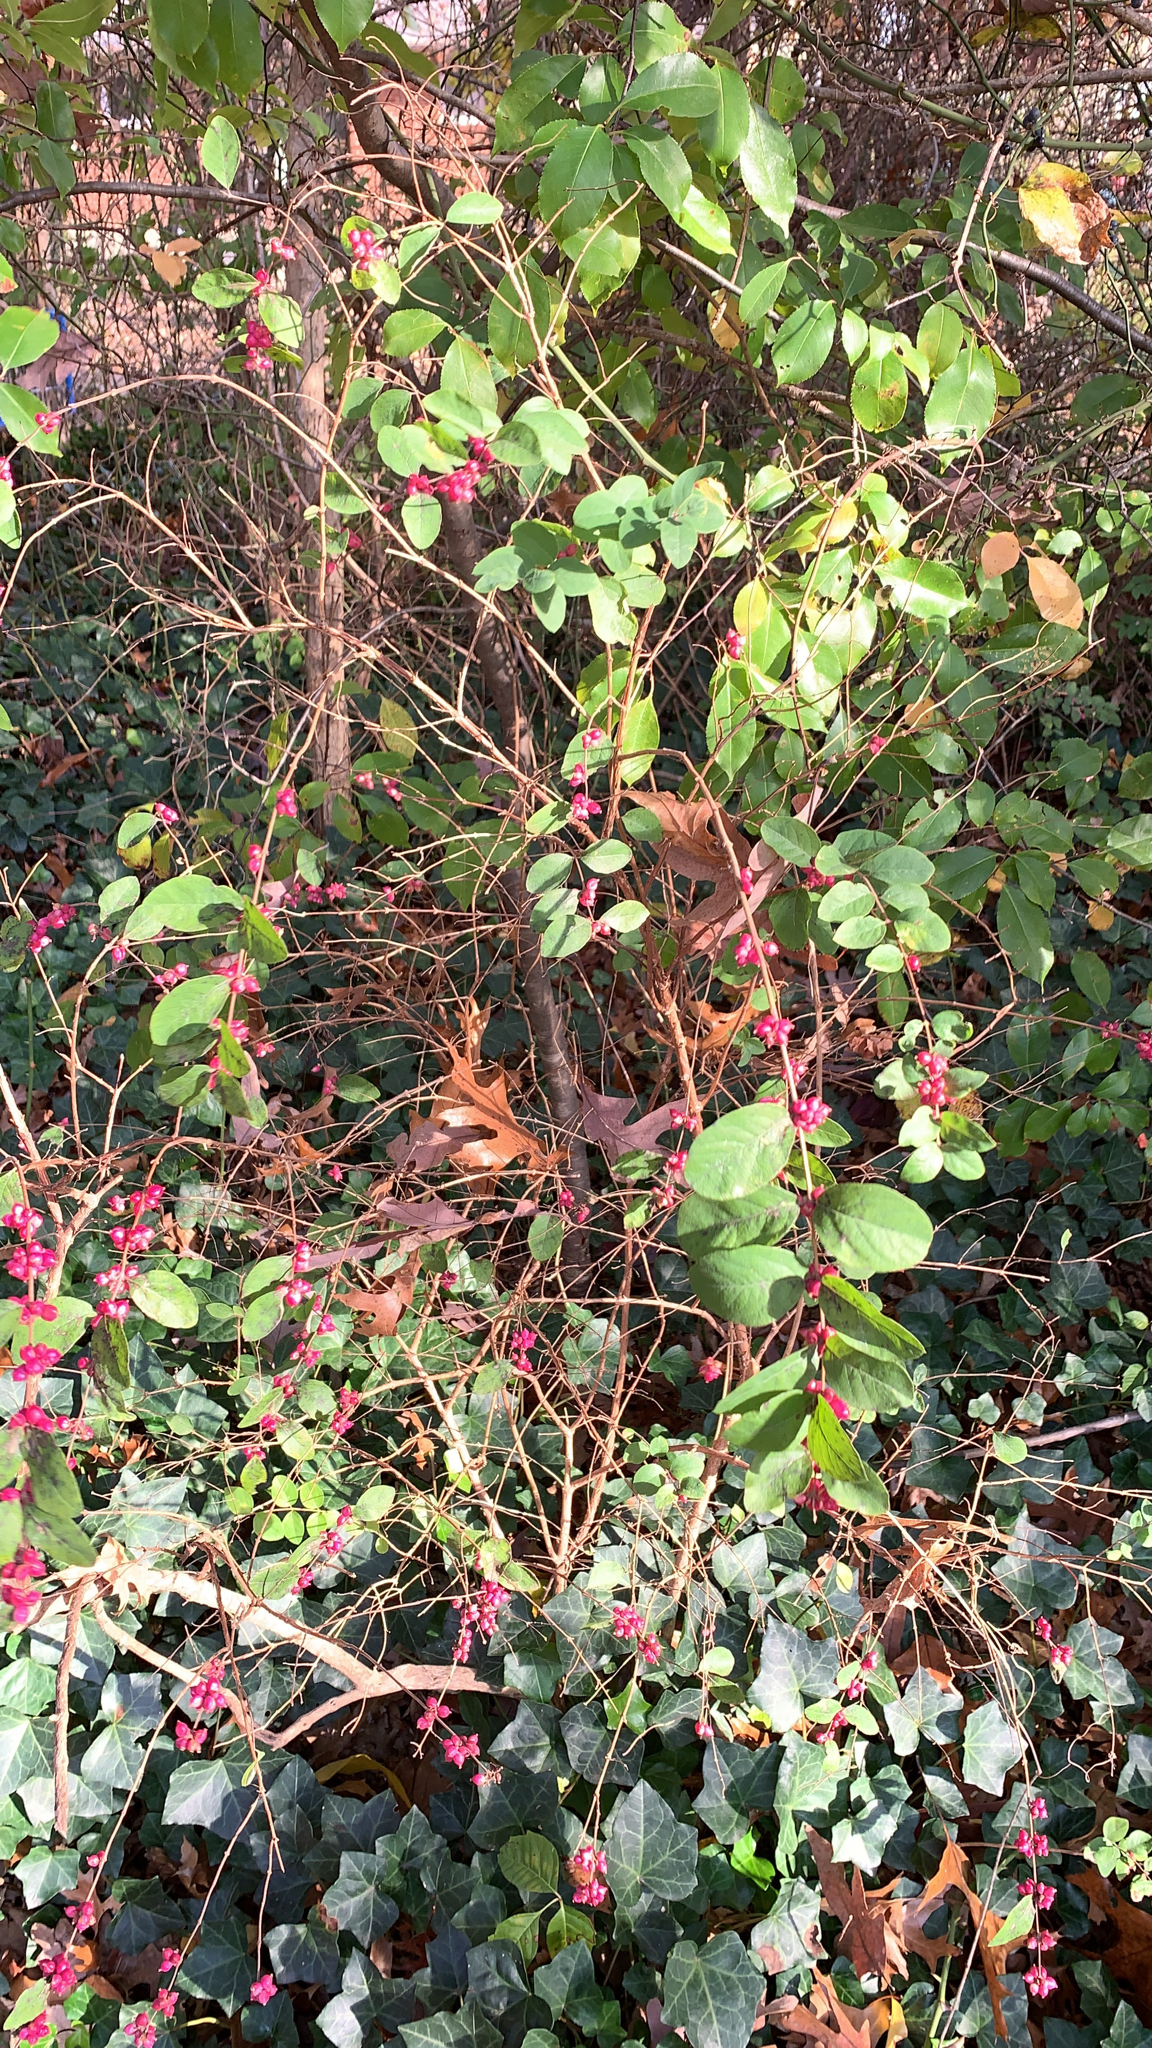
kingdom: Plantae
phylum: Tracheophyta
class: Magnoliopsida
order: Dipsacales
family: Caprifoliaceae
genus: Symphoricarpos
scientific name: Symphoricarpos orbiculatus
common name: Coralberry
